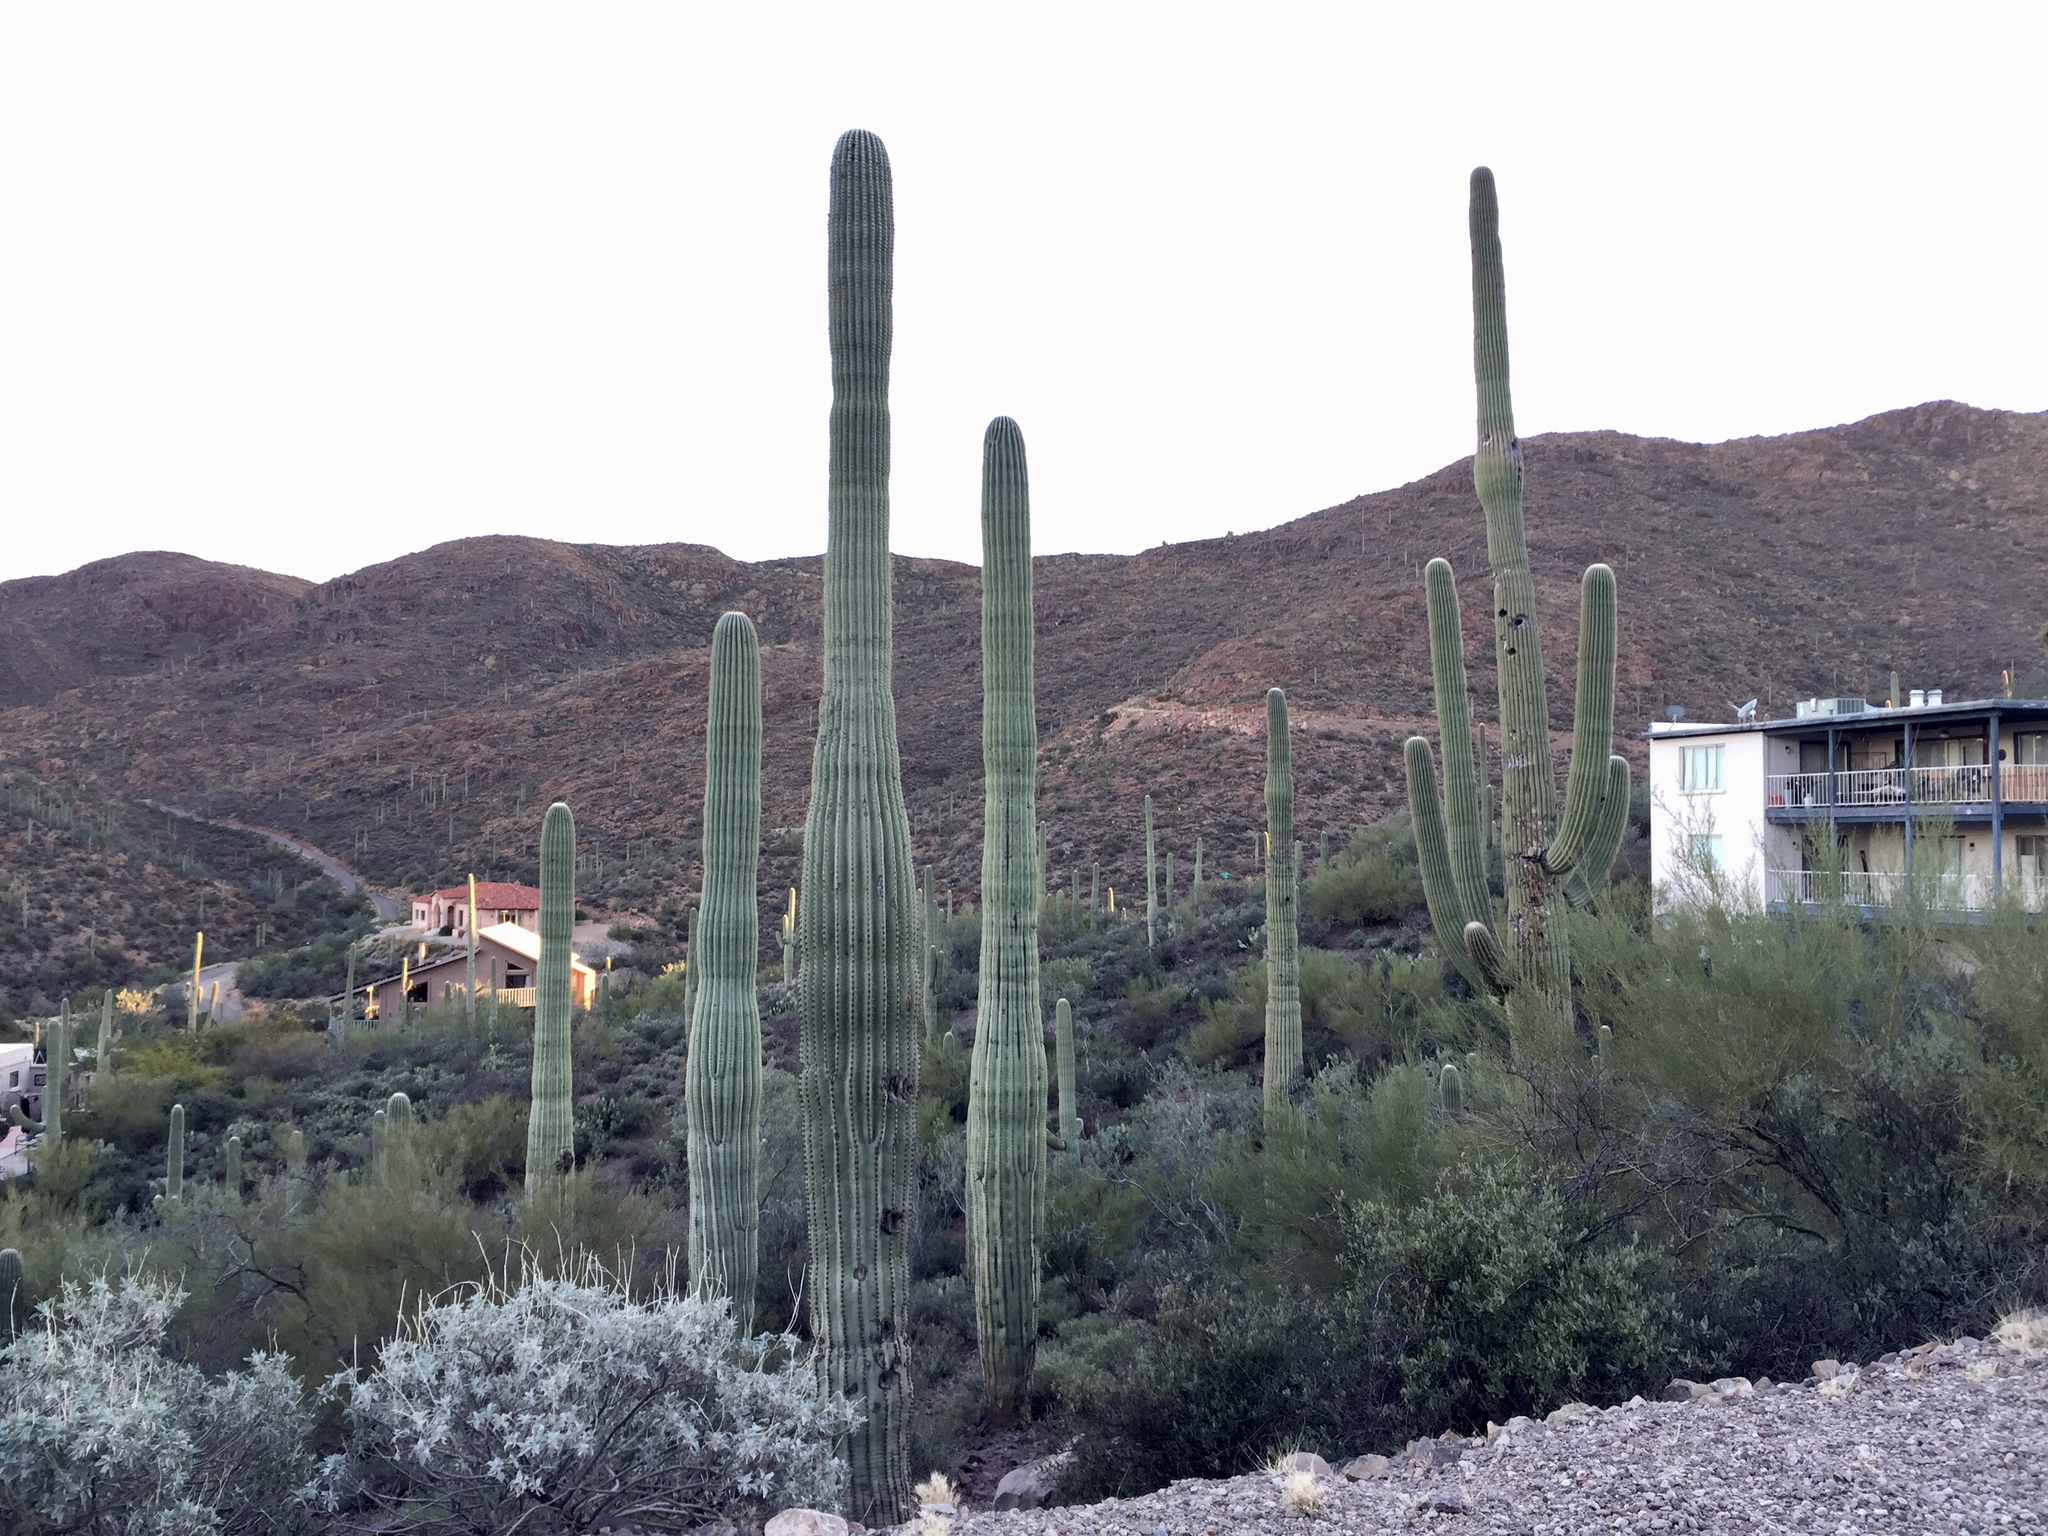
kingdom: Plantae
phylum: Tracheophyta
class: Magnoliopsida
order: Caryophyllales
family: Cactaceae
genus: Carnegiea
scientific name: Carnegiea gigantea
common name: Saguaro
